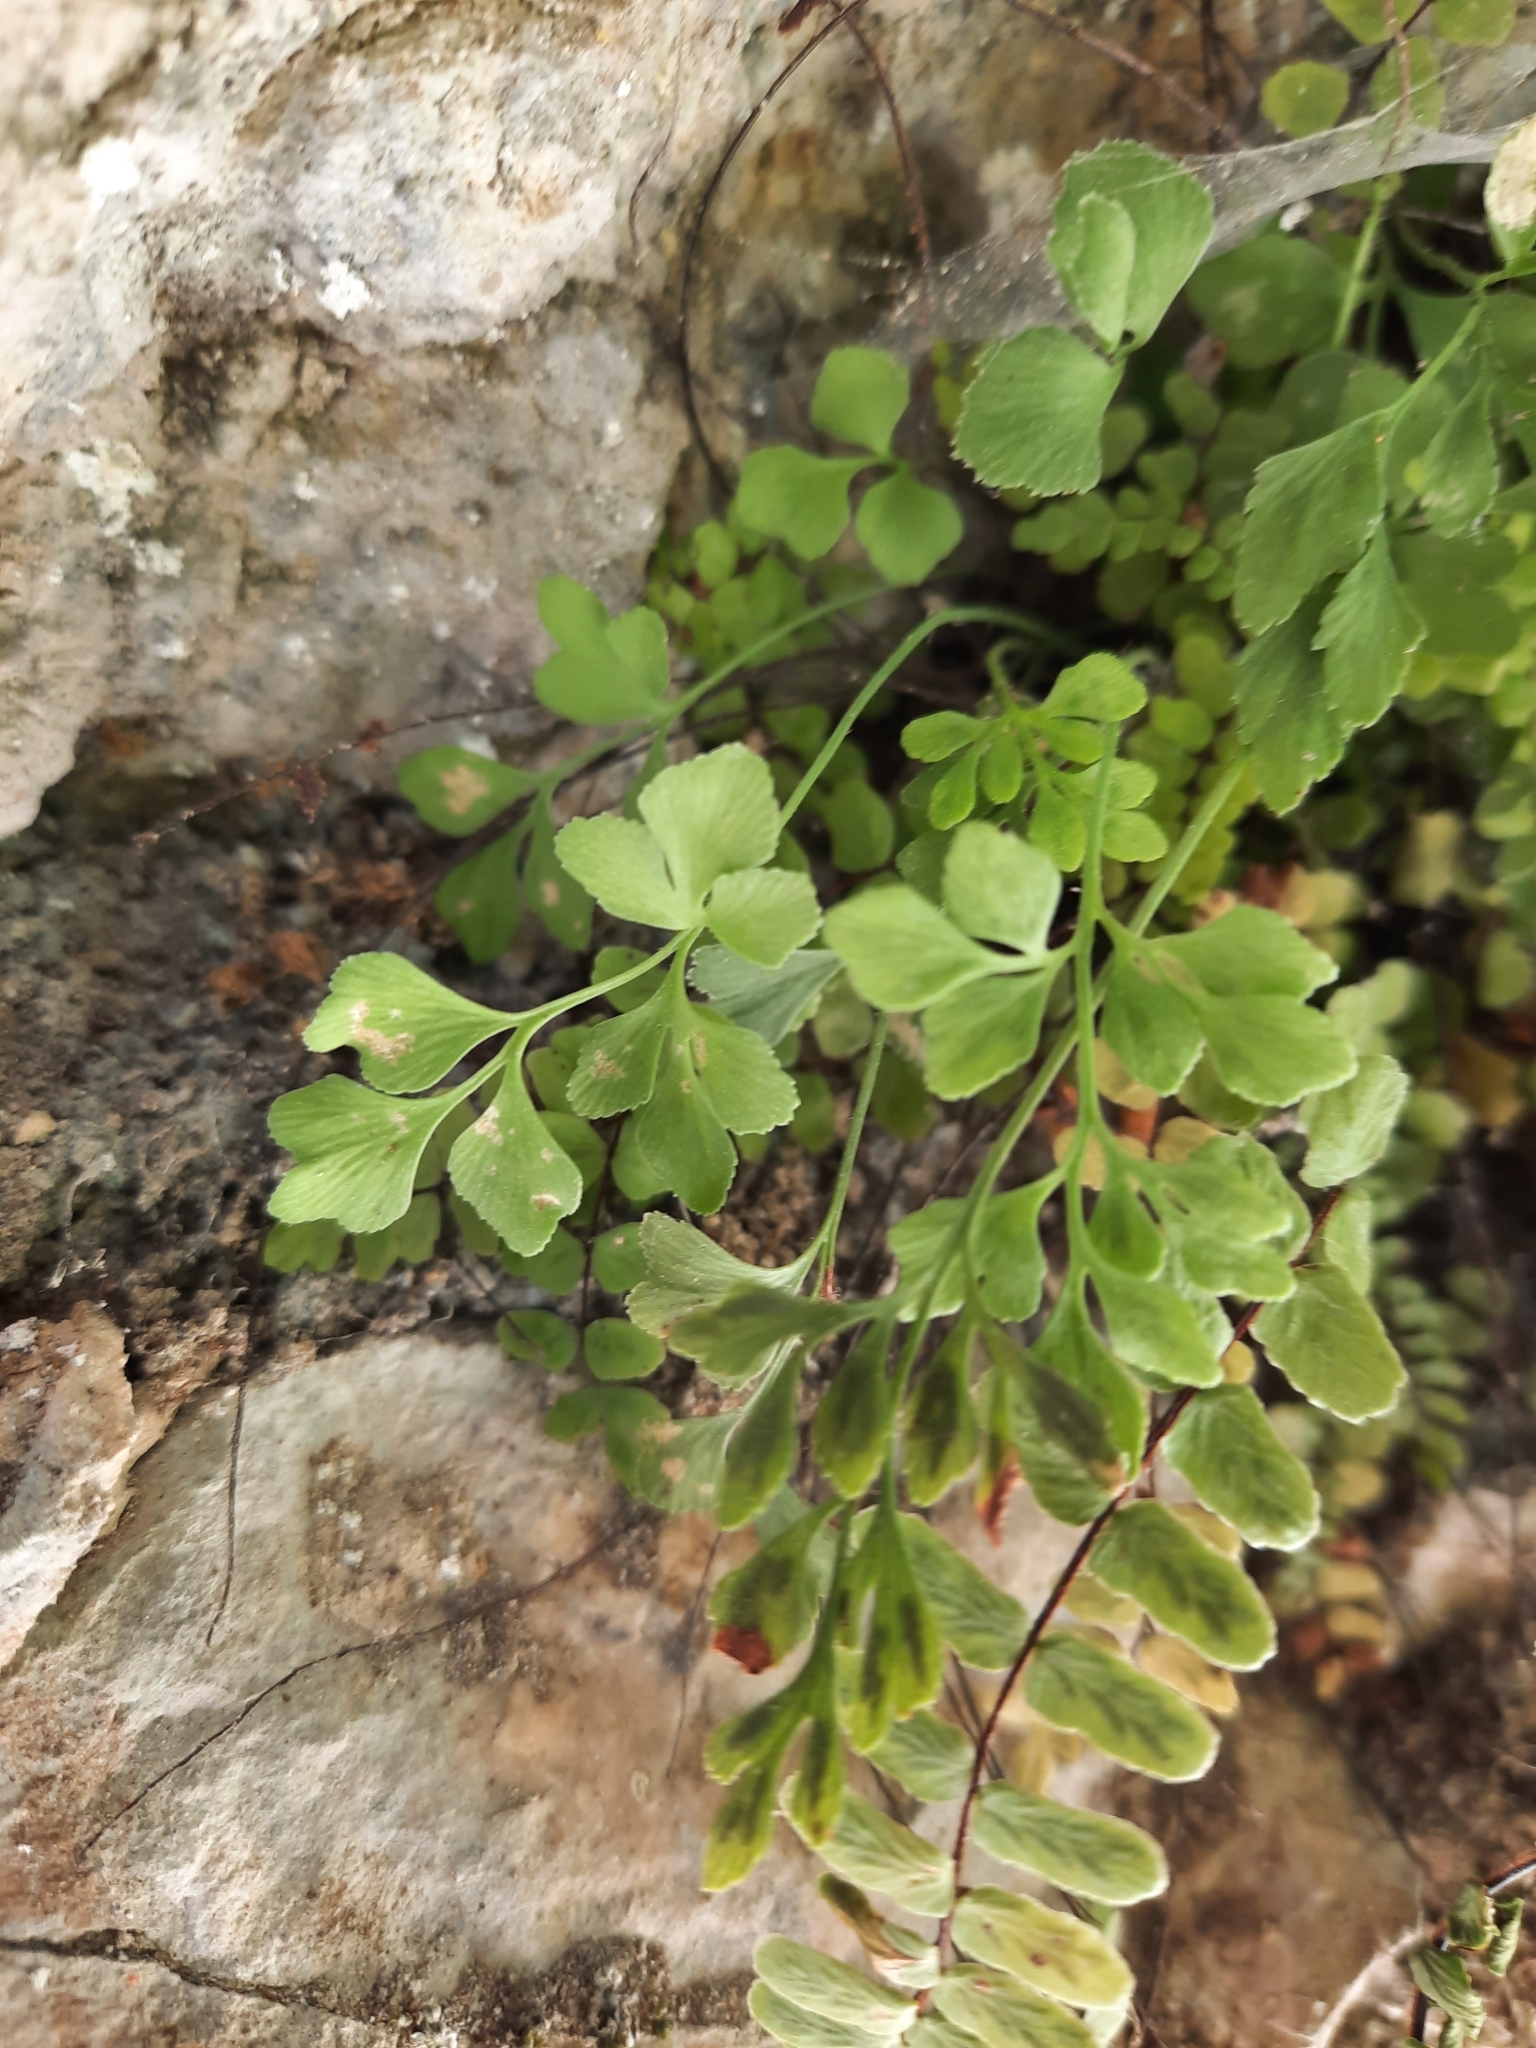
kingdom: Plantae
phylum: Tracheophyta
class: Polypodiopsida
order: Polypodiales
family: Aspleniaceae
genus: Asplenium
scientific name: Asplenium ruta-muraria
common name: Wall-rue
